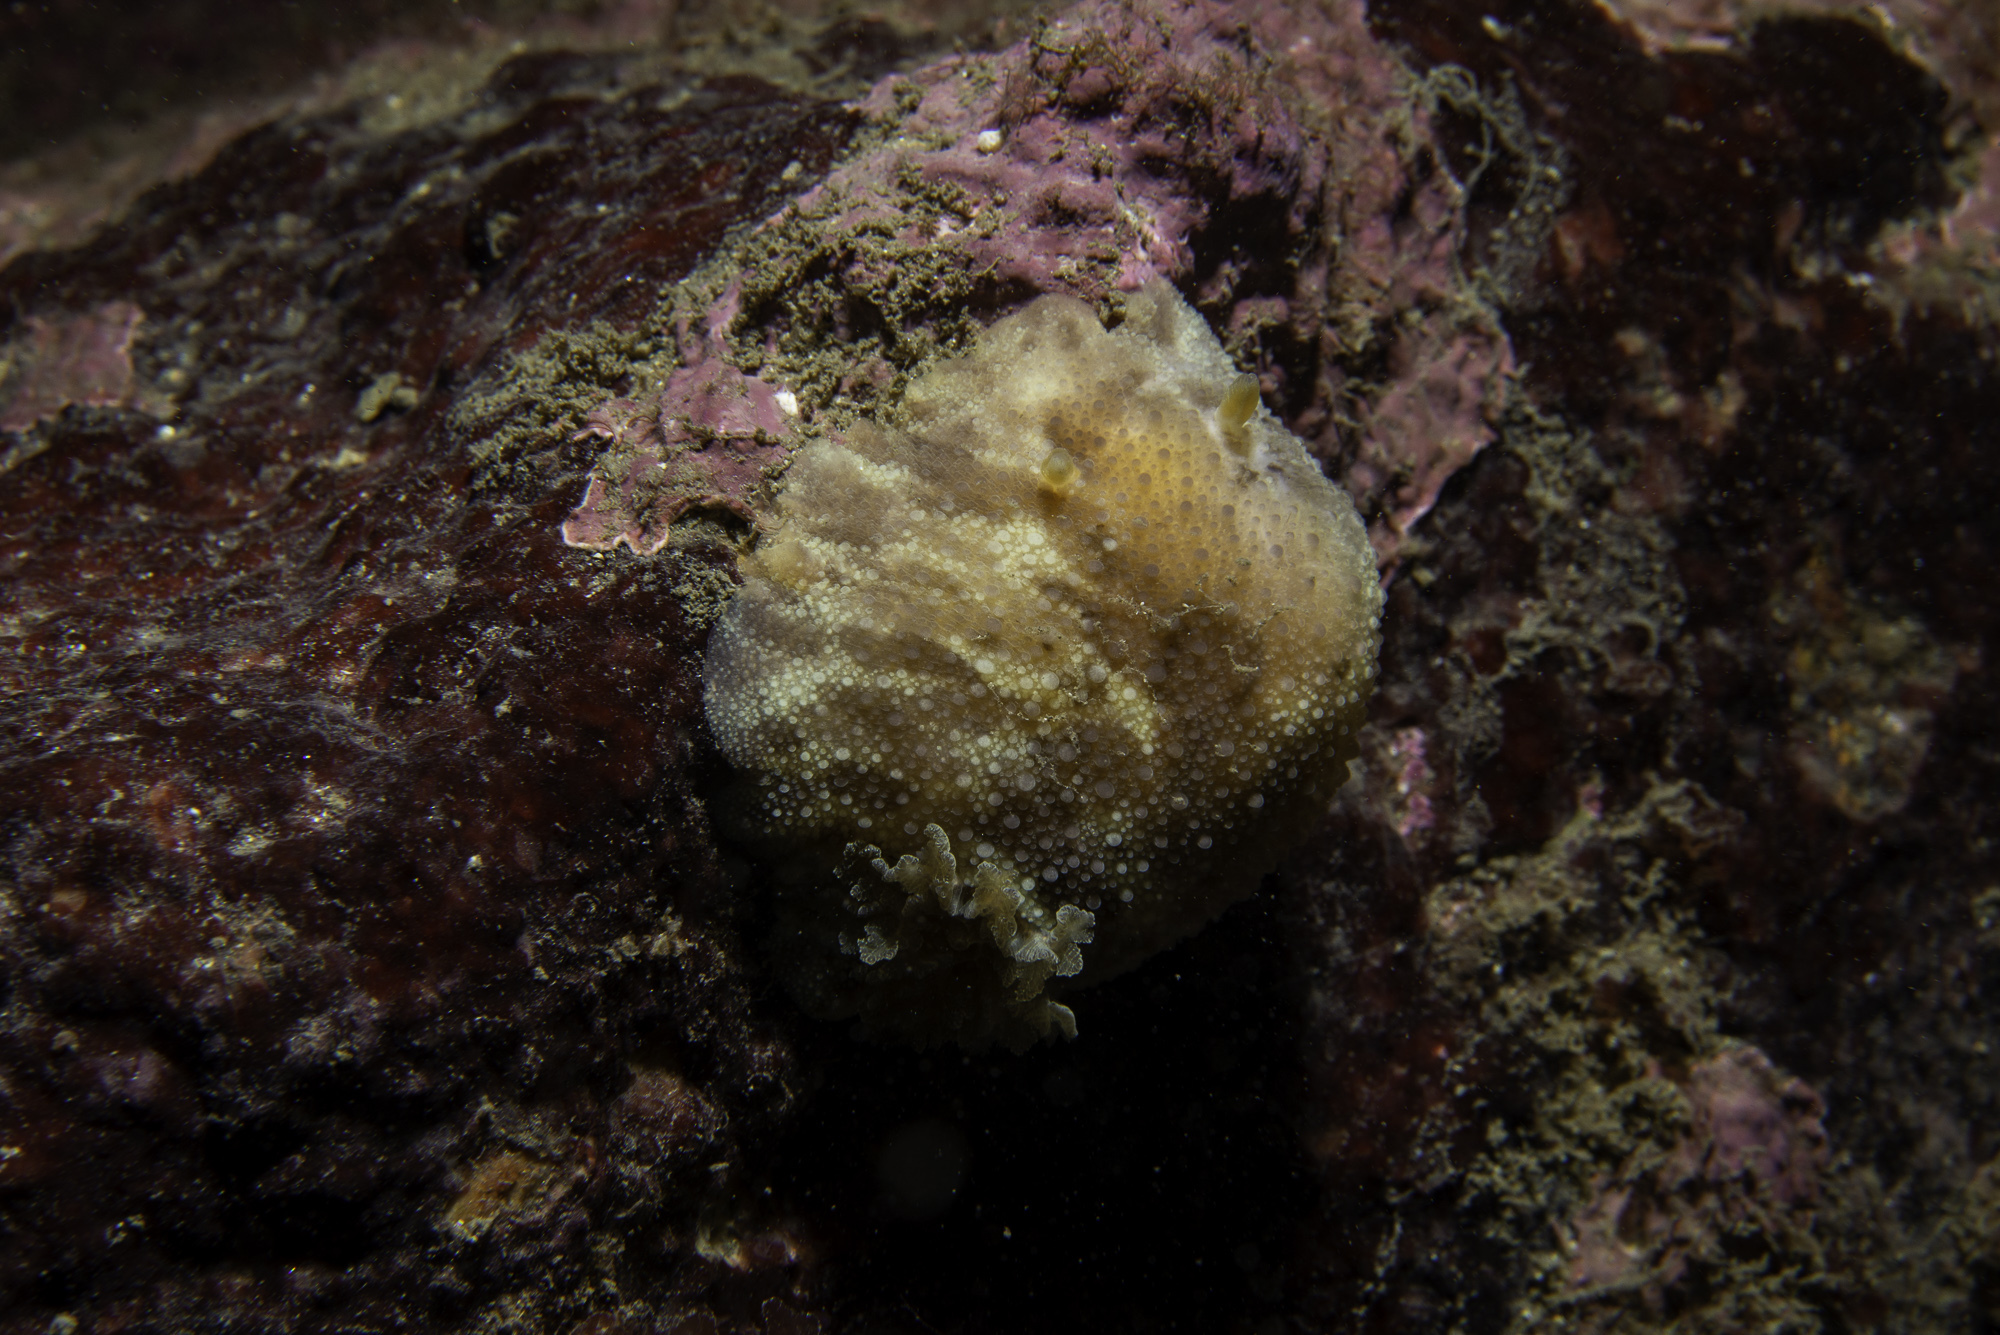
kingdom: Animalia
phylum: Mollusca
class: Gastropoda
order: Nudibranchia
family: Dorididae
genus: Doris
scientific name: Doris pseudoargus
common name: Sea lemon
